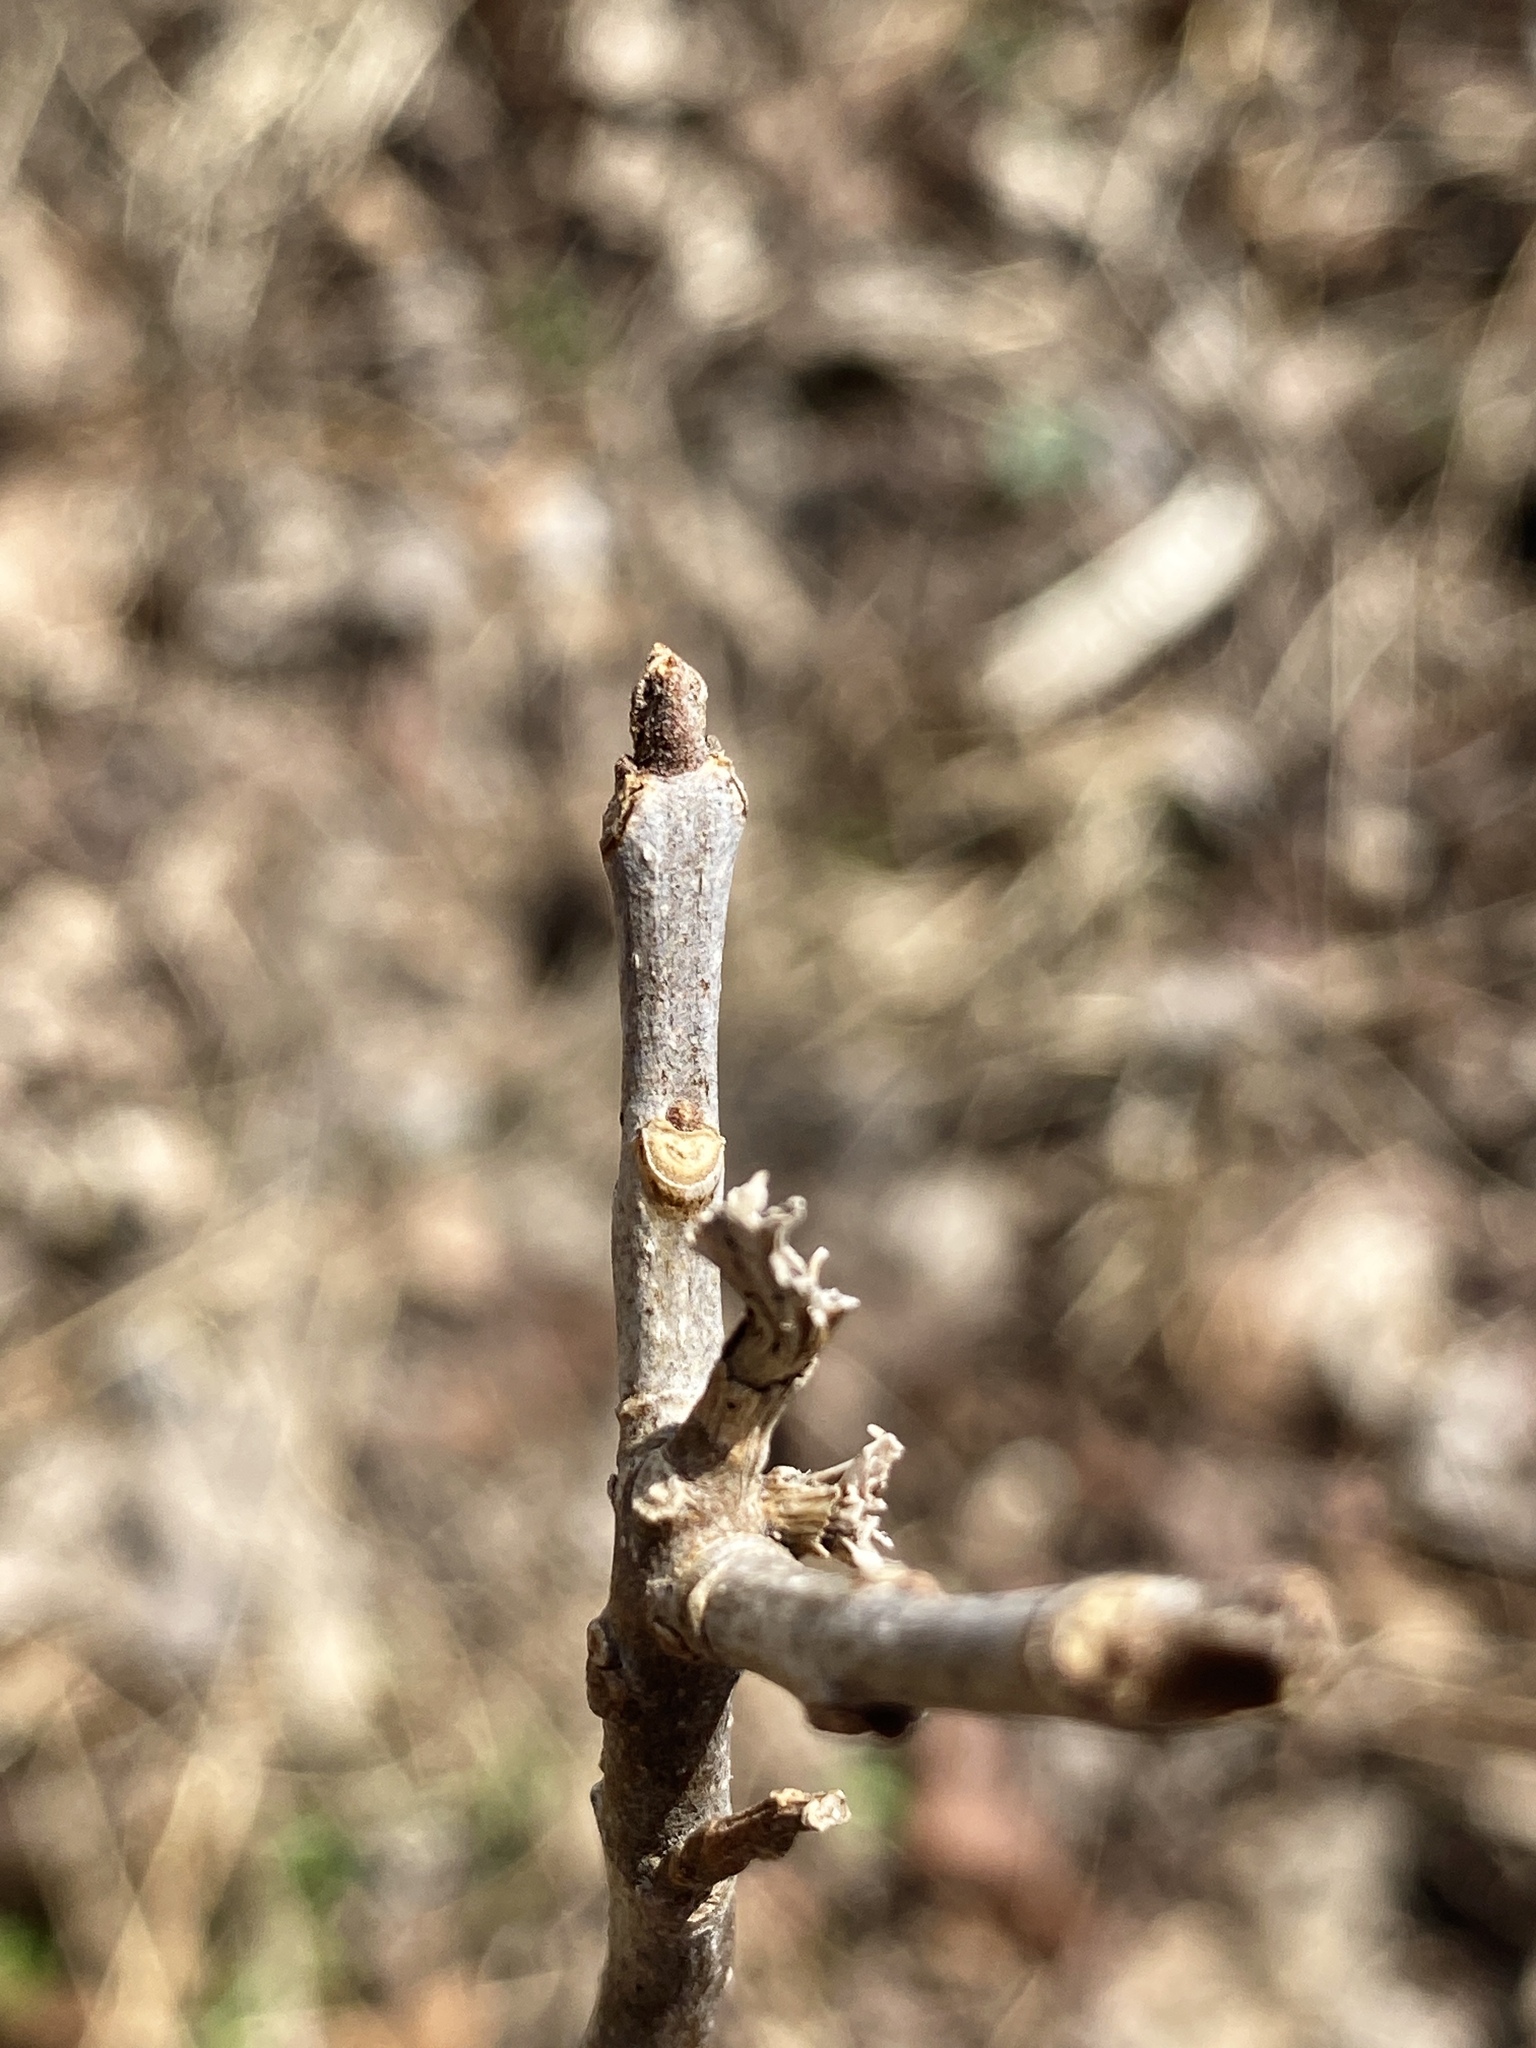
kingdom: Animalia
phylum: Arthropoda
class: Arachnida
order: Trombidiformes
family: Eriophyidae
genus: Aceria
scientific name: Aceria fraxiniflora
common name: Ash flower gall mite
